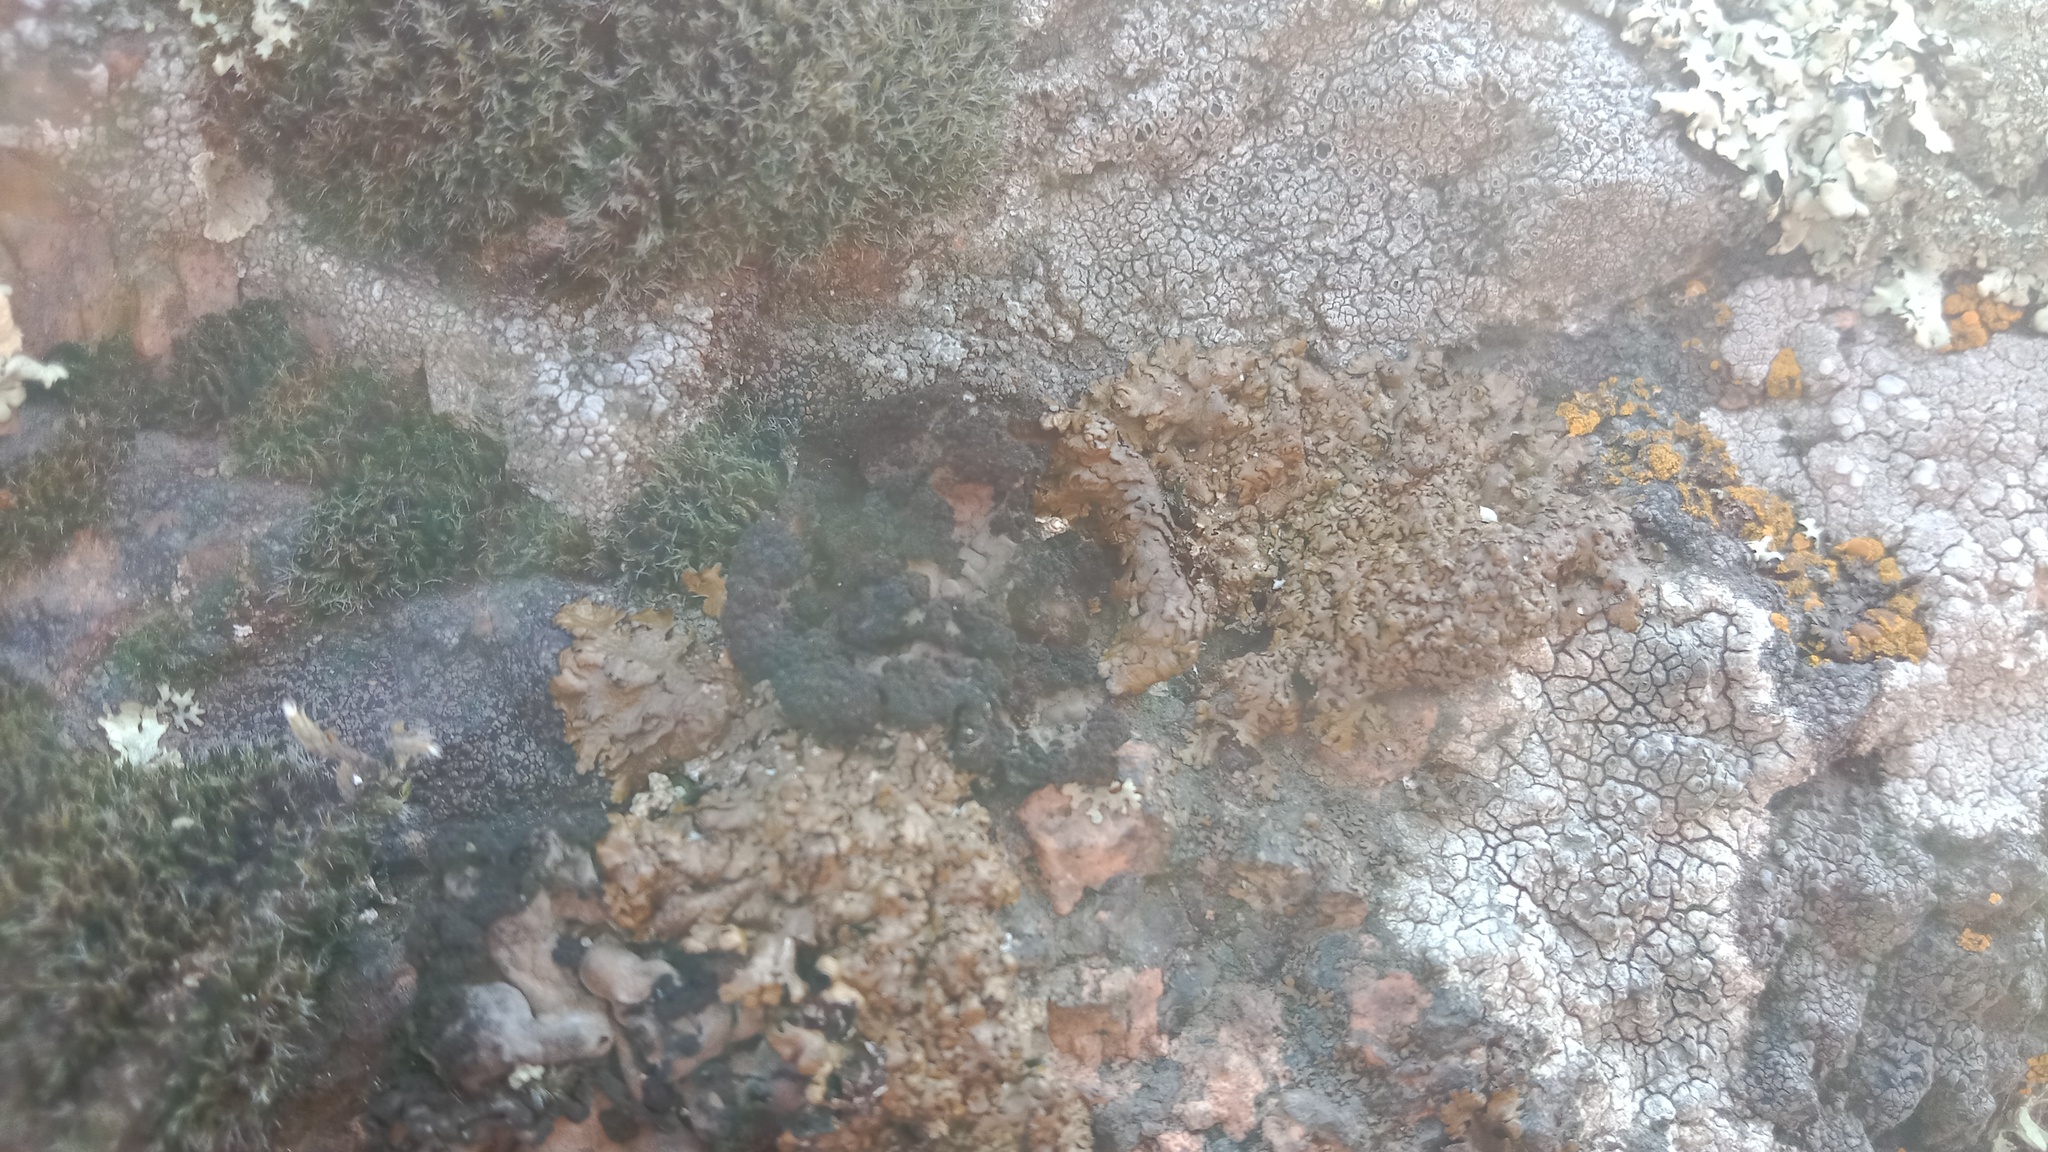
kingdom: Fungi
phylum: Ascomycota
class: Lecanoromycetes
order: Lecanorales
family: Parmeliaceae
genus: Xanthoparmelia
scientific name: Xanthoparmelia pulla
